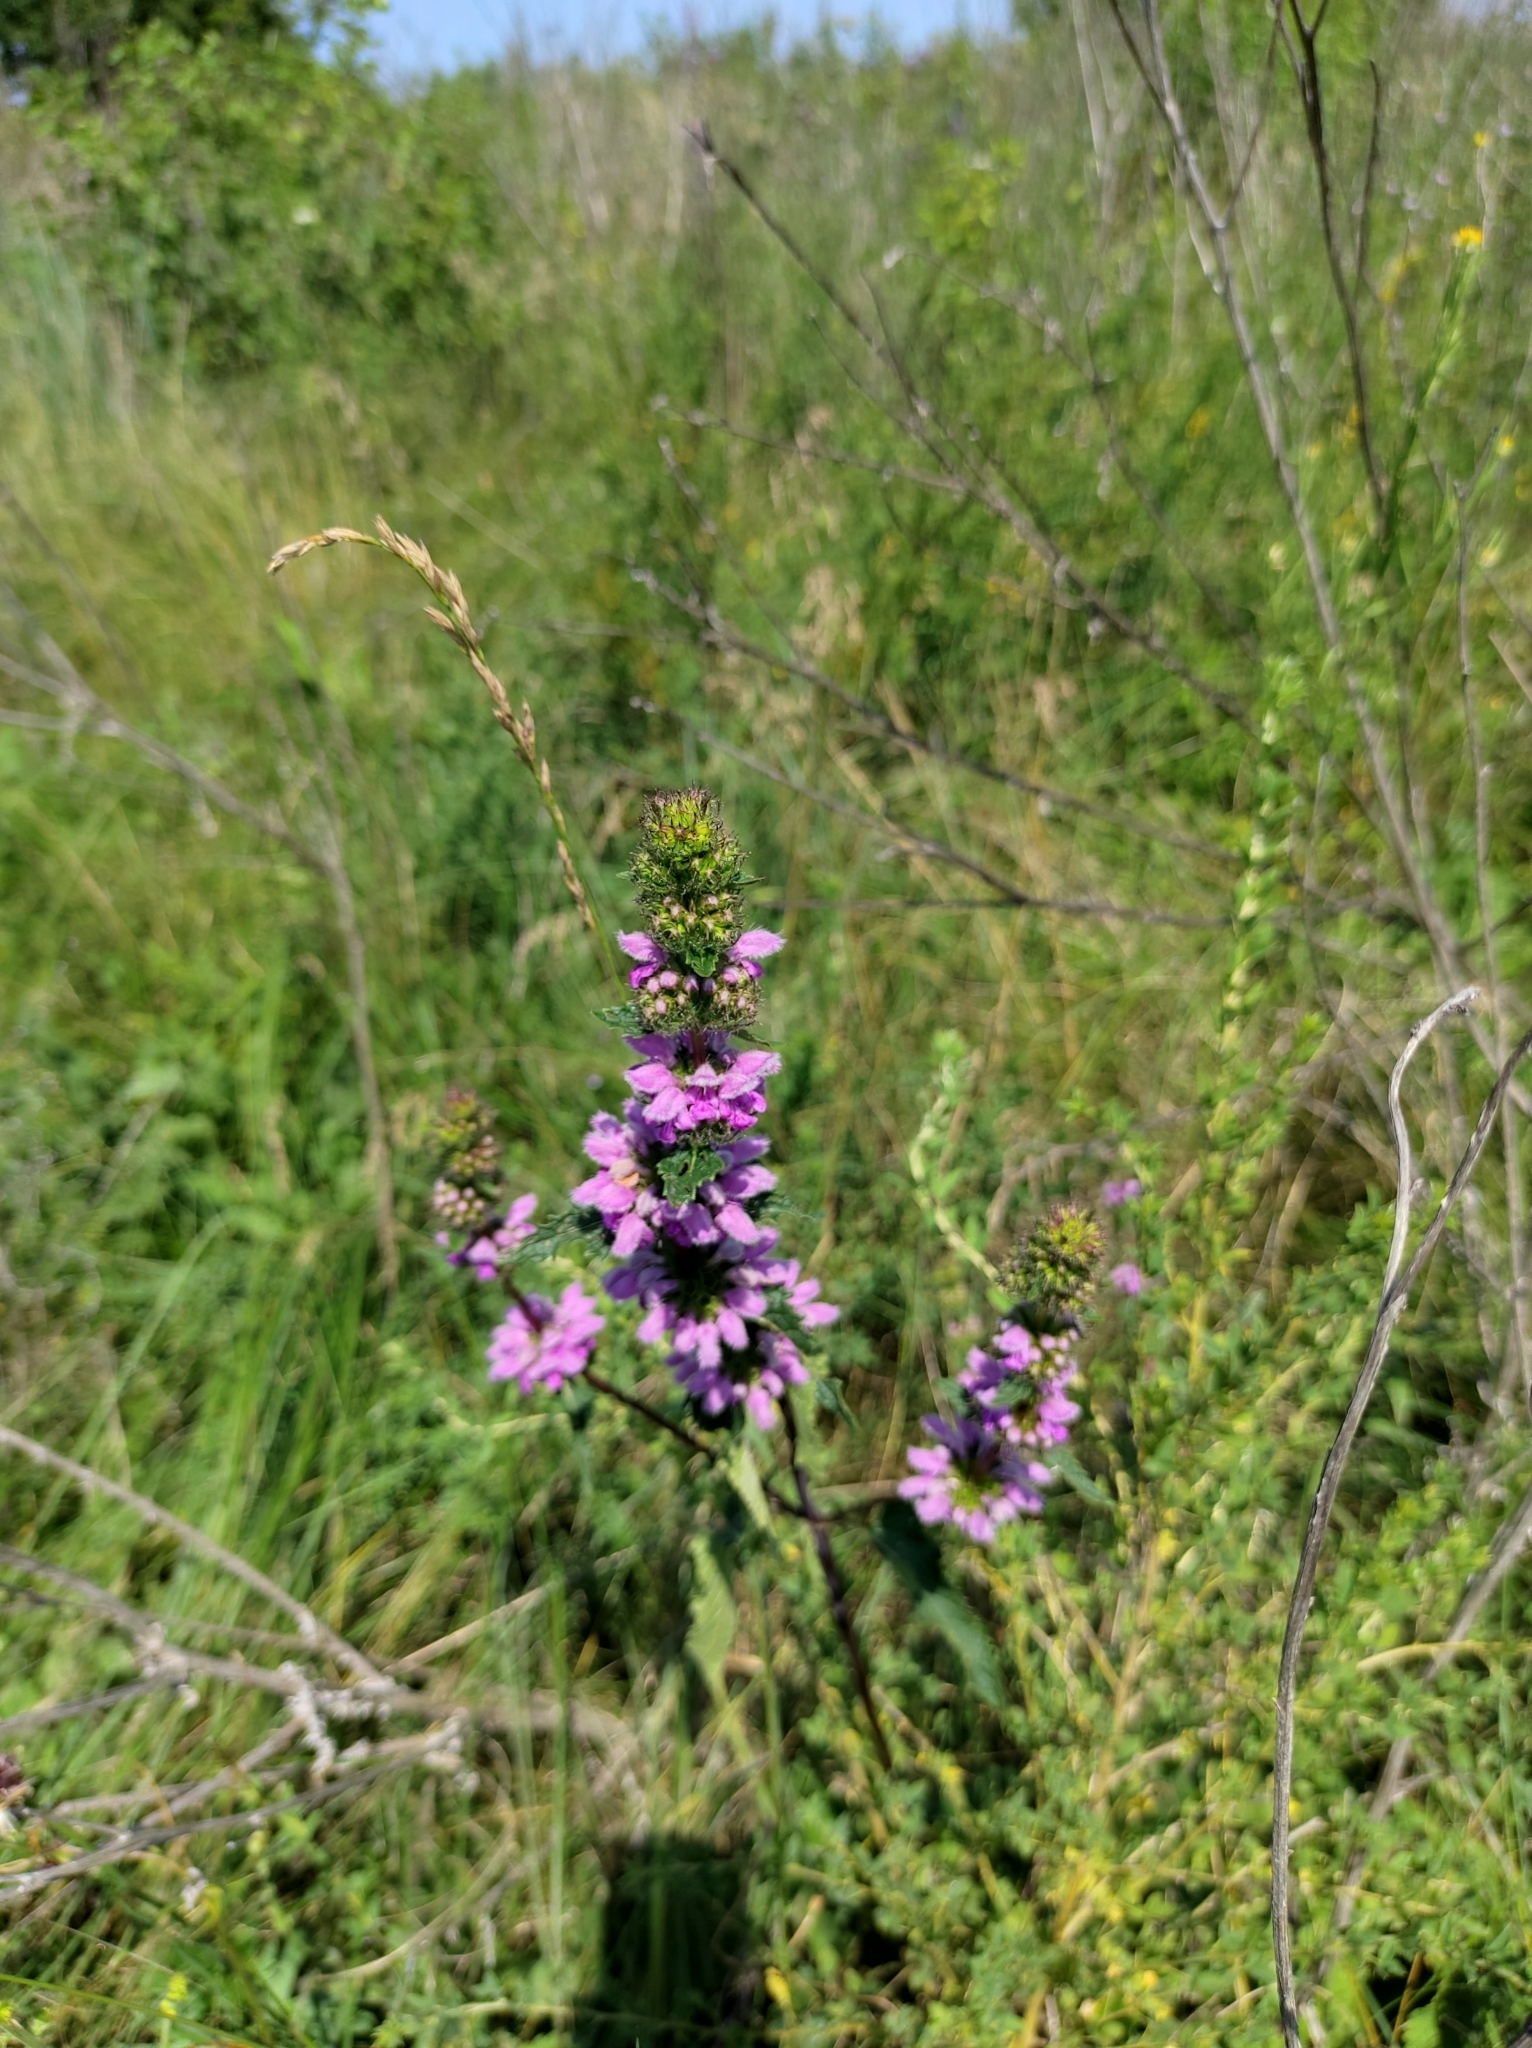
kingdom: Plantae
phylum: Tracheophyta
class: Magnoliopsida
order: Lamiales
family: Lamiaceae
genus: Phlomoides
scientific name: Phlomoides tuberosa
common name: Tuberous jerusalem sage
